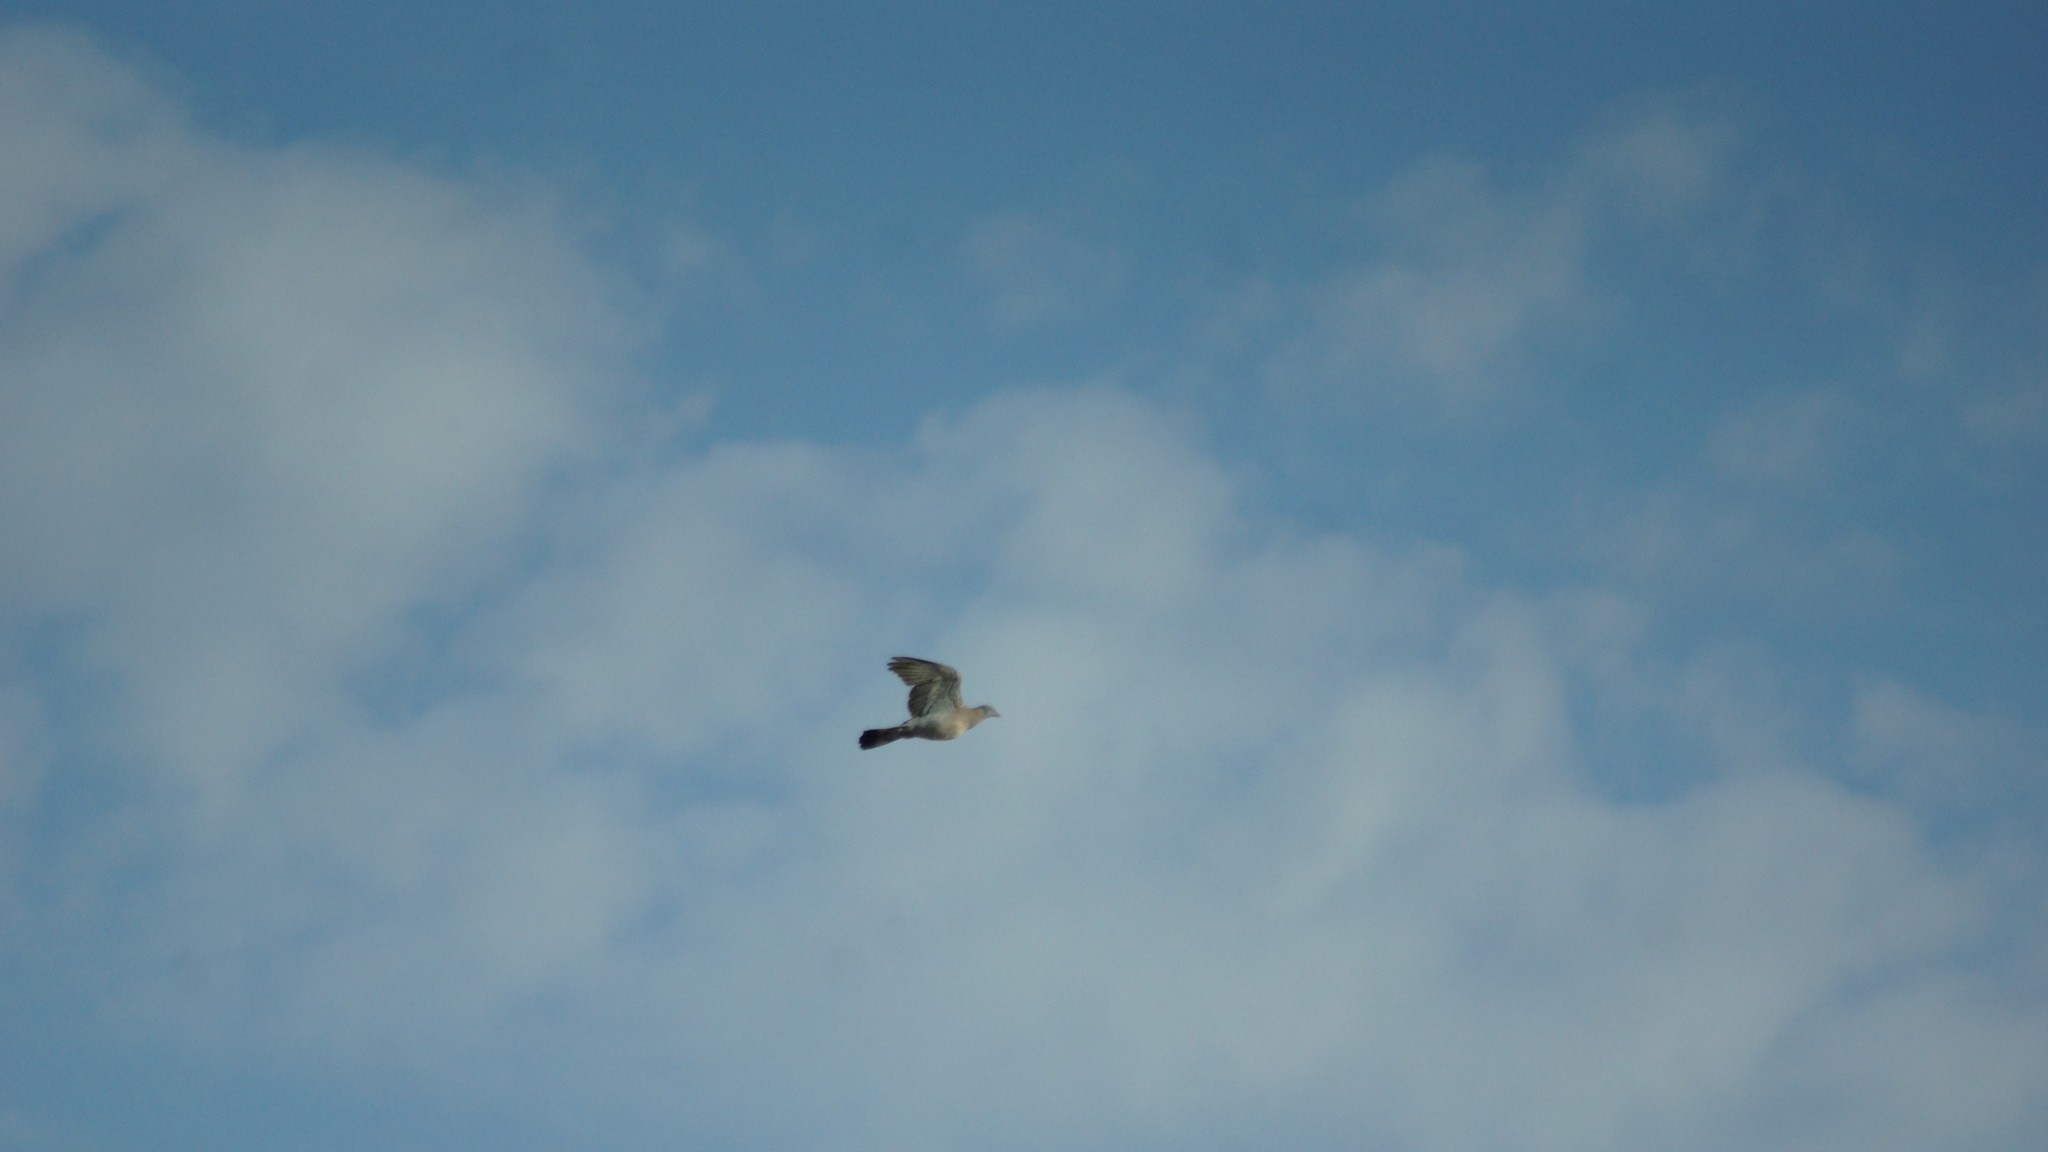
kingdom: Animalia
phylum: Chordata
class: Aves
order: Columbiformes
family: Columbidae
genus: Columba
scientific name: Columba palumbus
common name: Common wood pigeon
